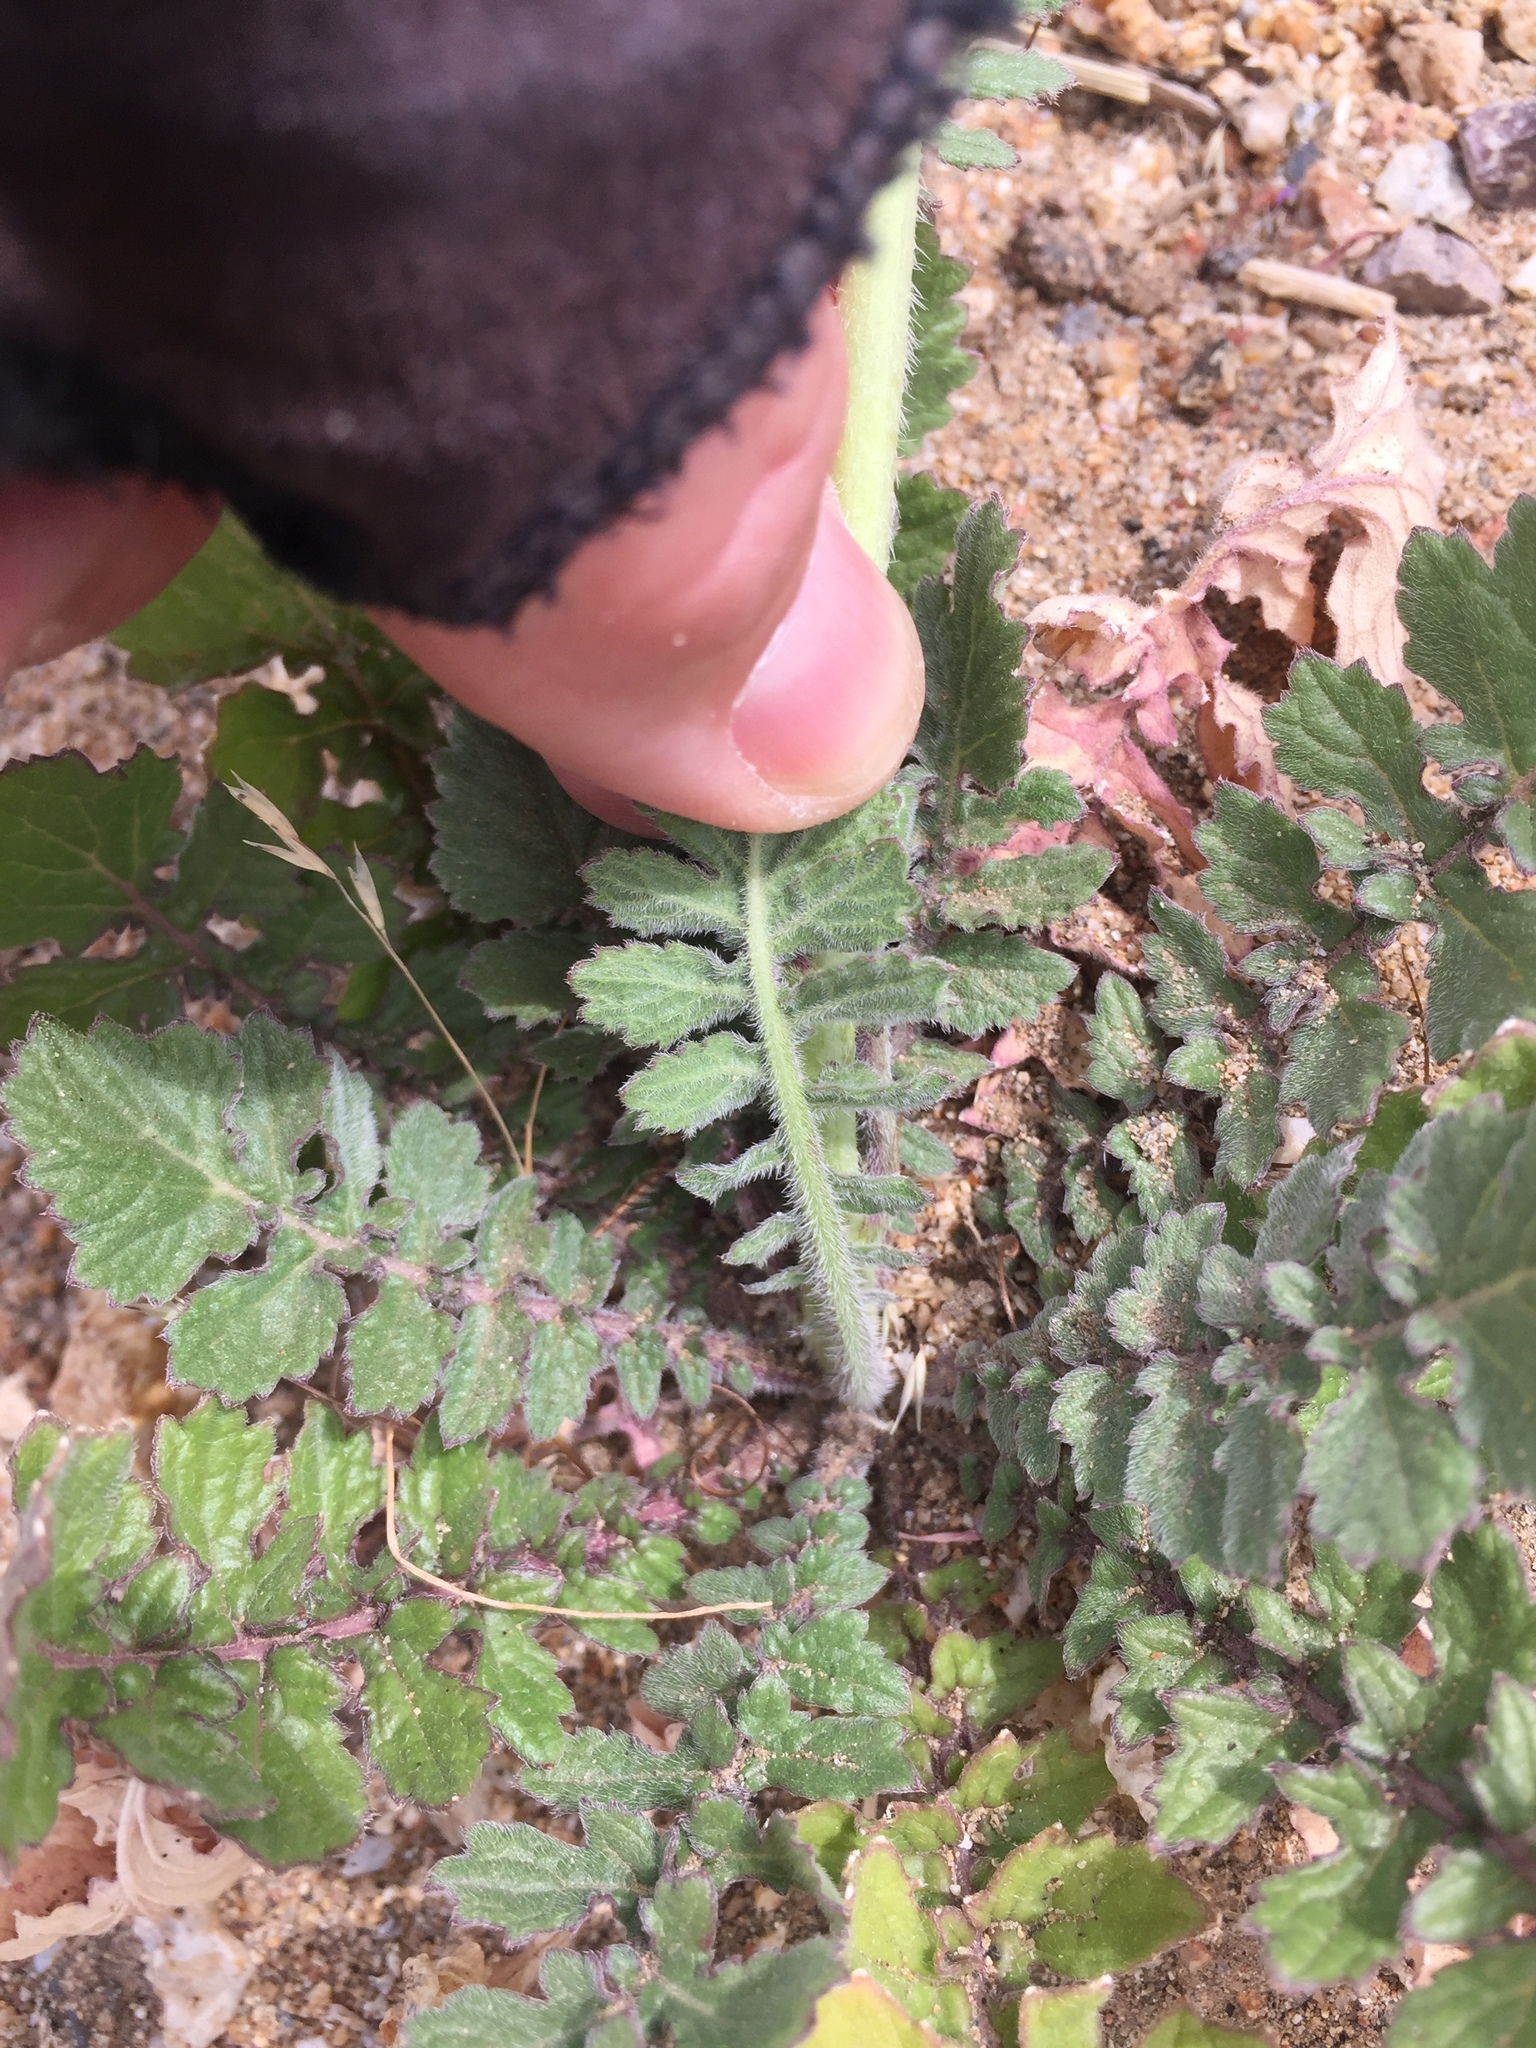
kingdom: Plantae
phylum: Tracheophyta
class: Magnoliopsida
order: Brassicales
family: Brassicaceae
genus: Hirschfeldia
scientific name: Hirschfeldia incana
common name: Hoary mustard
